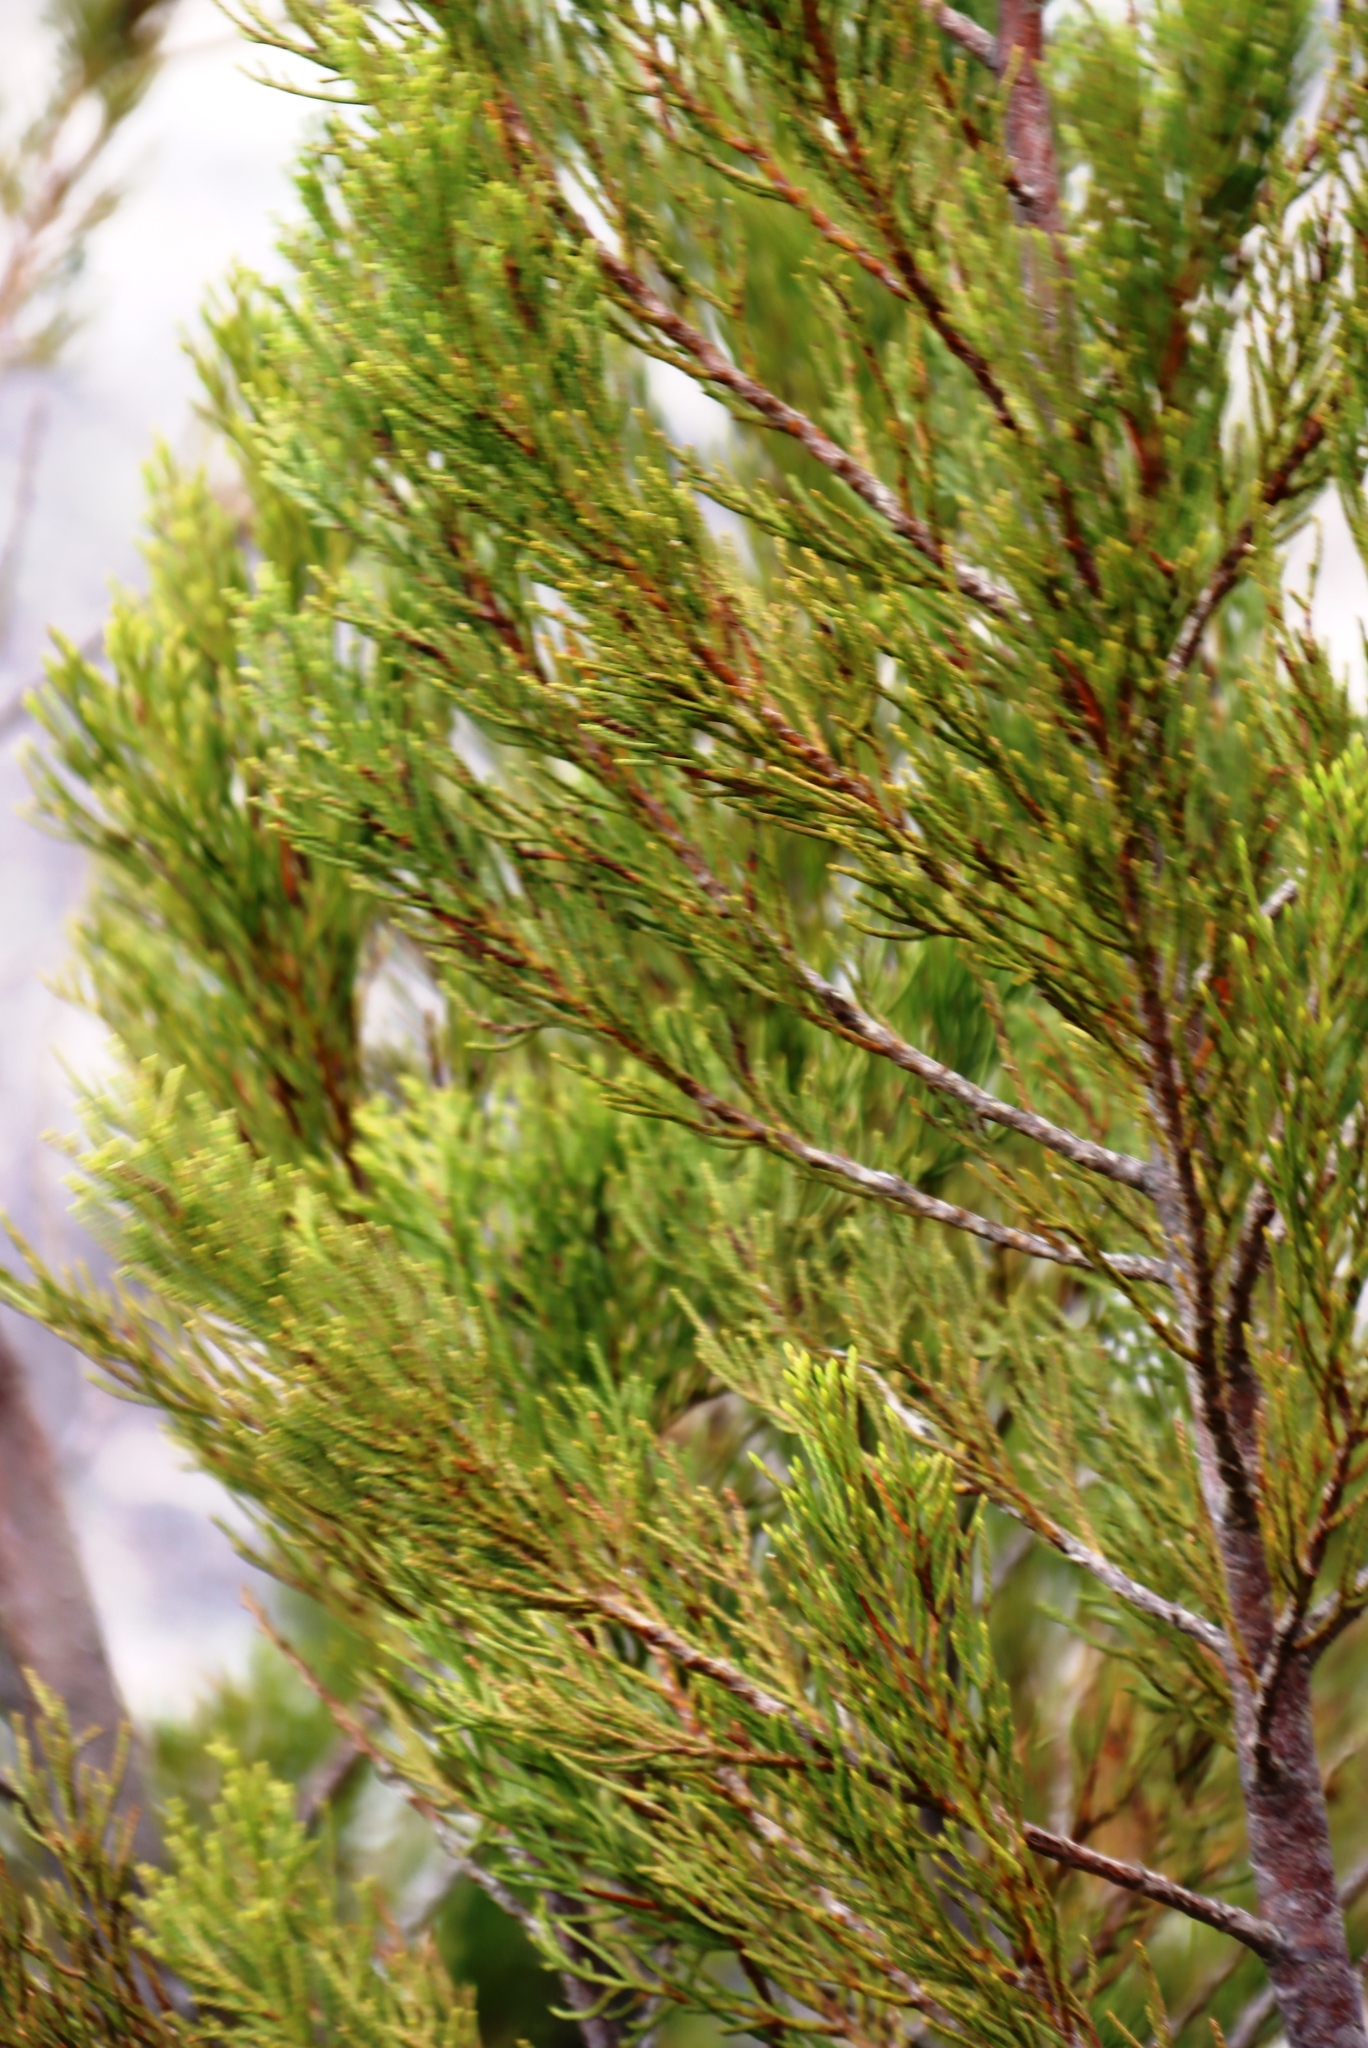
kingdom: Plantae
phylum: Tracheophyta
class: Pinopsida
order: Pinales
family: Cupressaceae
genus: Widdringtonia
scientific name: Widdringtonia nodiflora
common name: Cape cypress
